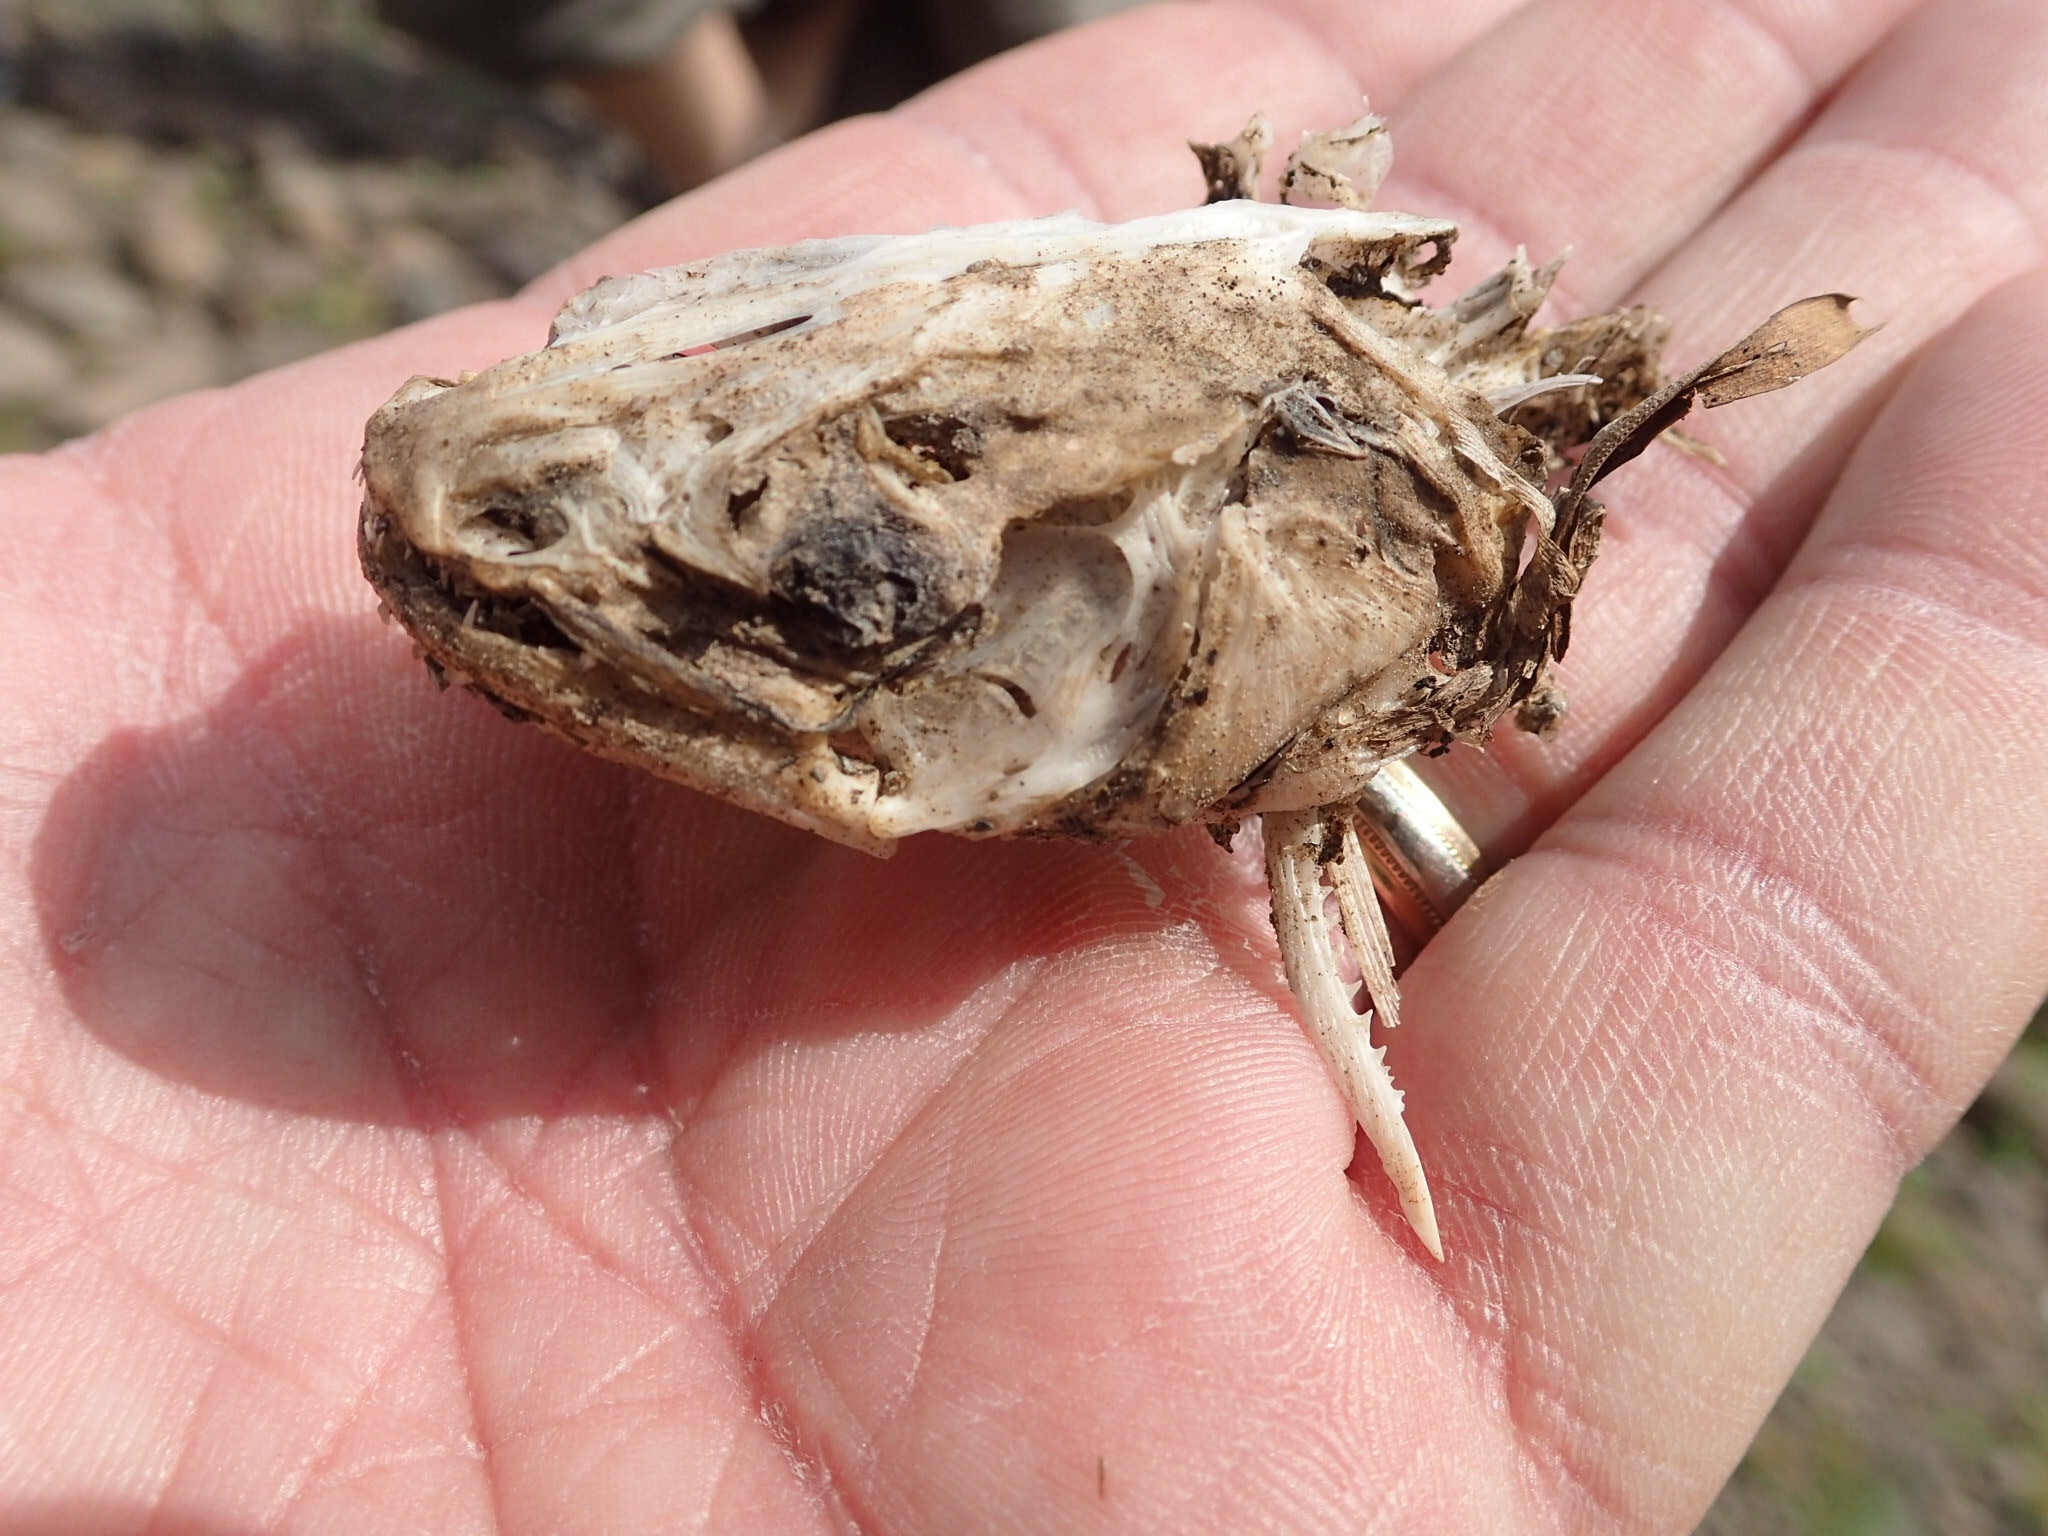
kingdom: Animalia
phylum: Chordata
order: Siluriformes
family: Ictaluridae
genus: Ameiurus
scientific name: Ameiurus nebulosus
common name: Brown bullhead
